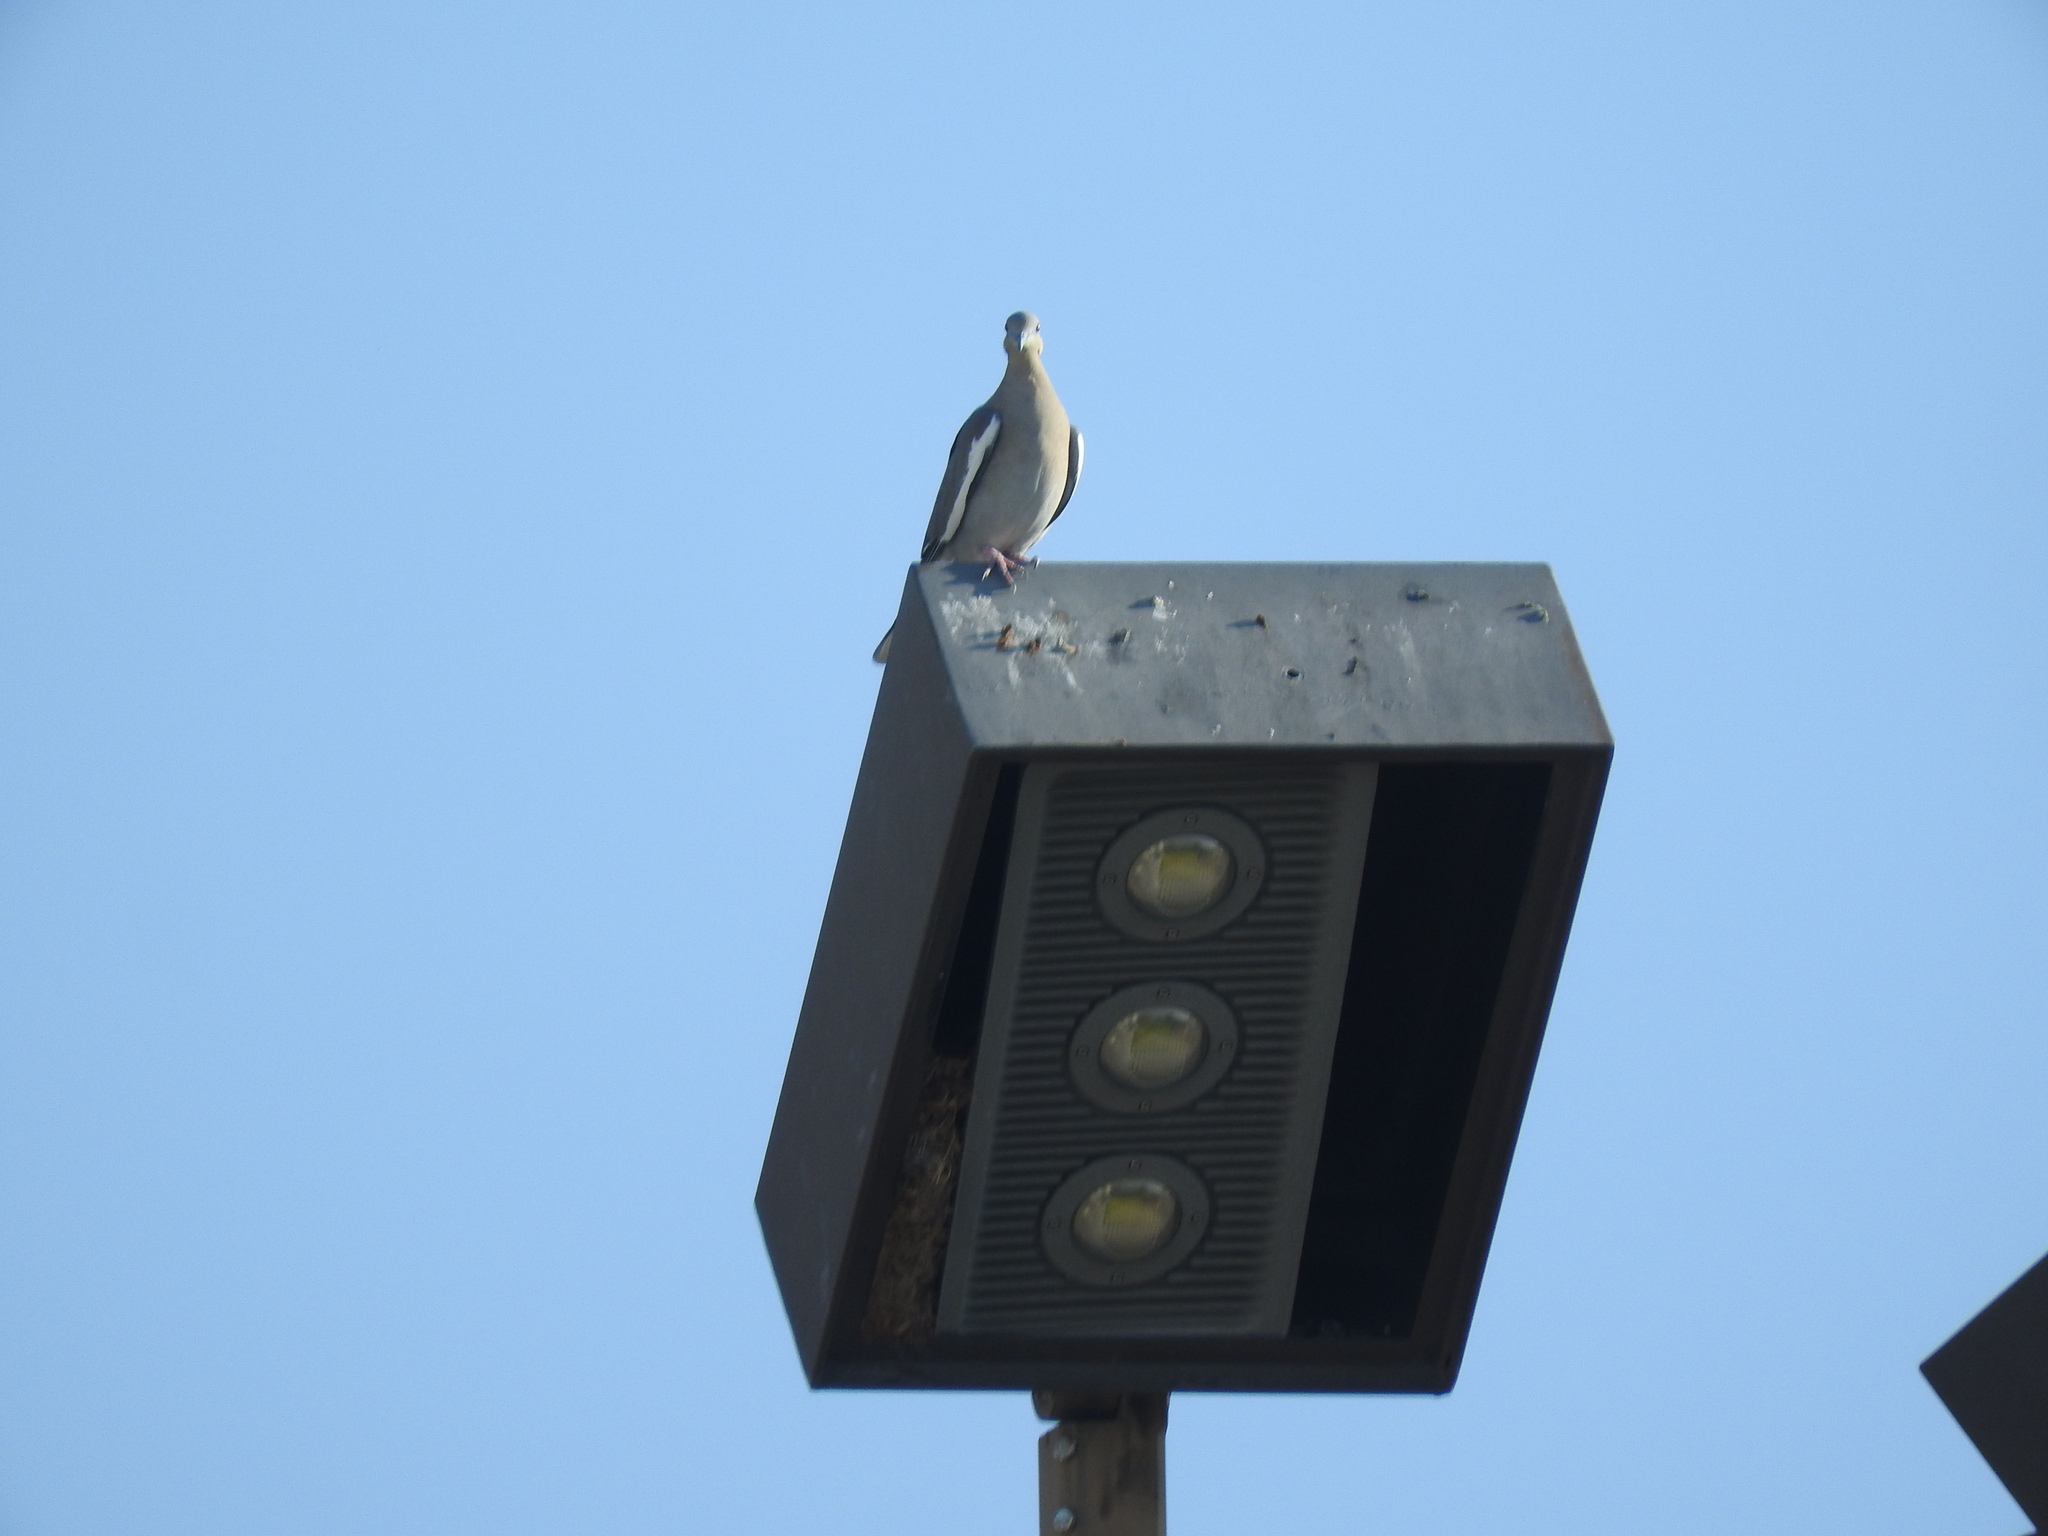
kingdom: Animalia
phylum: Chordata
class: Aves
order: Columbiformes
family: Columbidae
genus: Zenaida
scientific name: Zenaida asiatica
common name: White-winged dove
